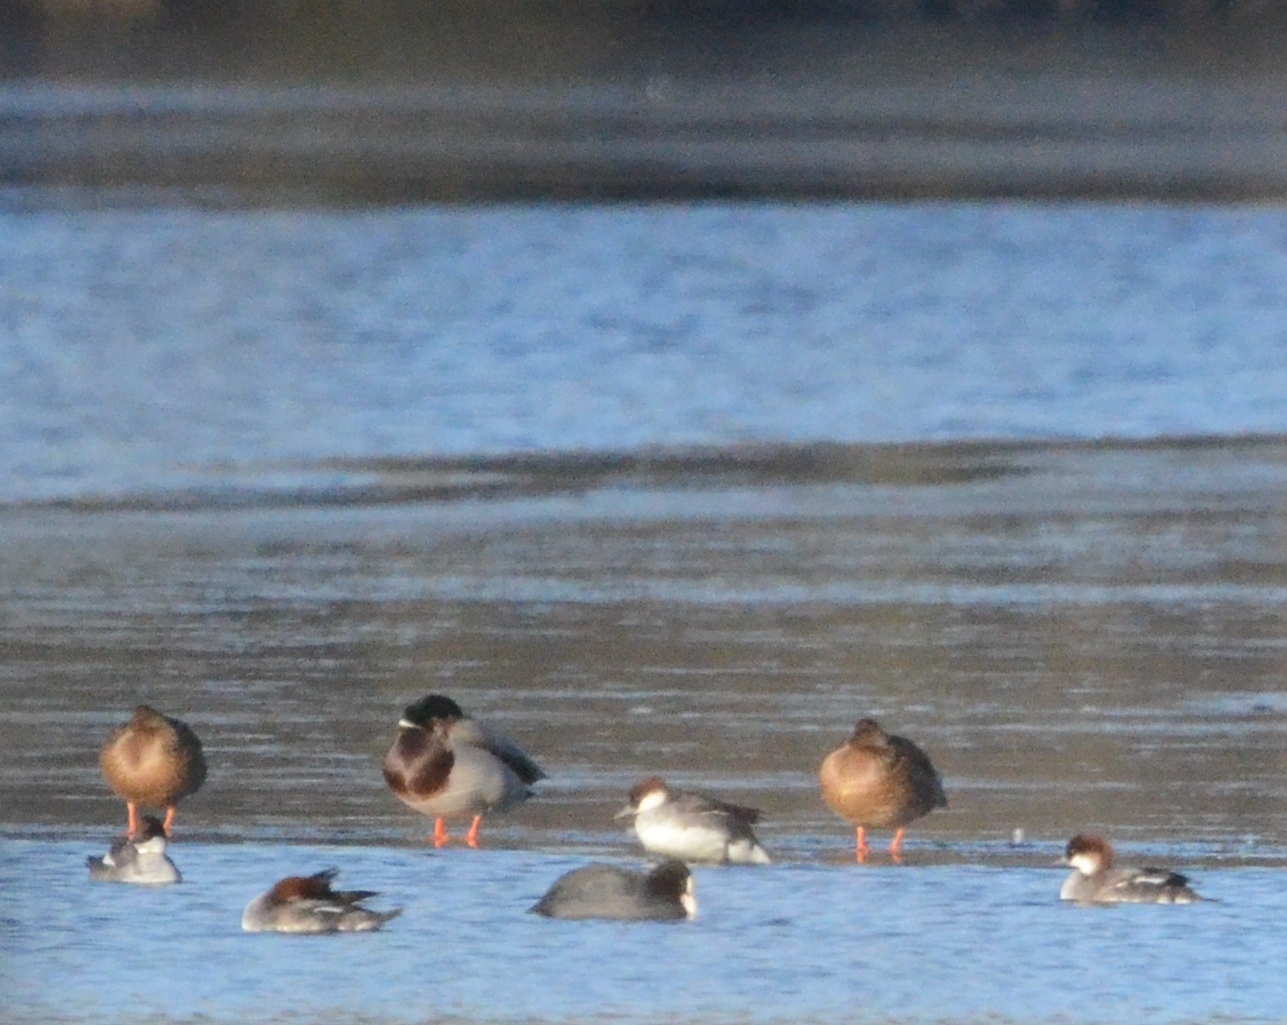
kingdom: Animalia
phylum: Chordata
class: Aves
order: Anseriformes
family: Anatidae
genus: Mergellus
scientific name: Mergellus albellus
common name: Smew
